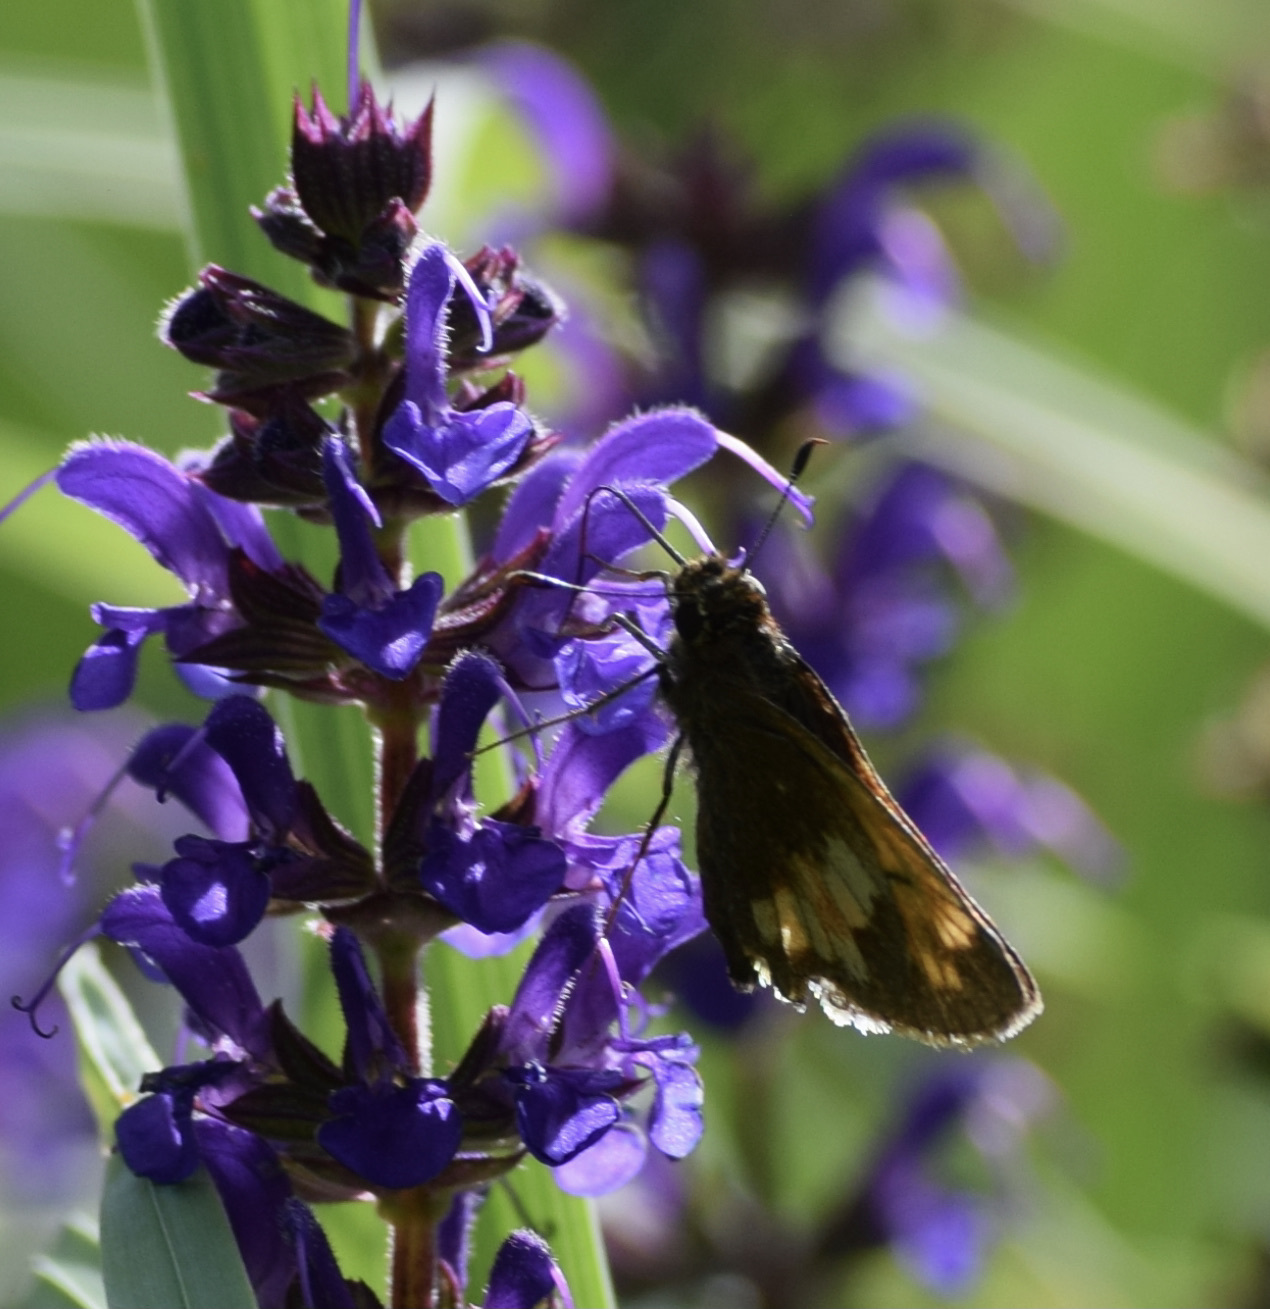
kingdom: Animalia
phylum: Arthropoda
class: Insecta
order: Lepidoptera
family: Hesperiidae
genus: Lon
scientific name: Lon hobomok
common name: Hobomok skipper
